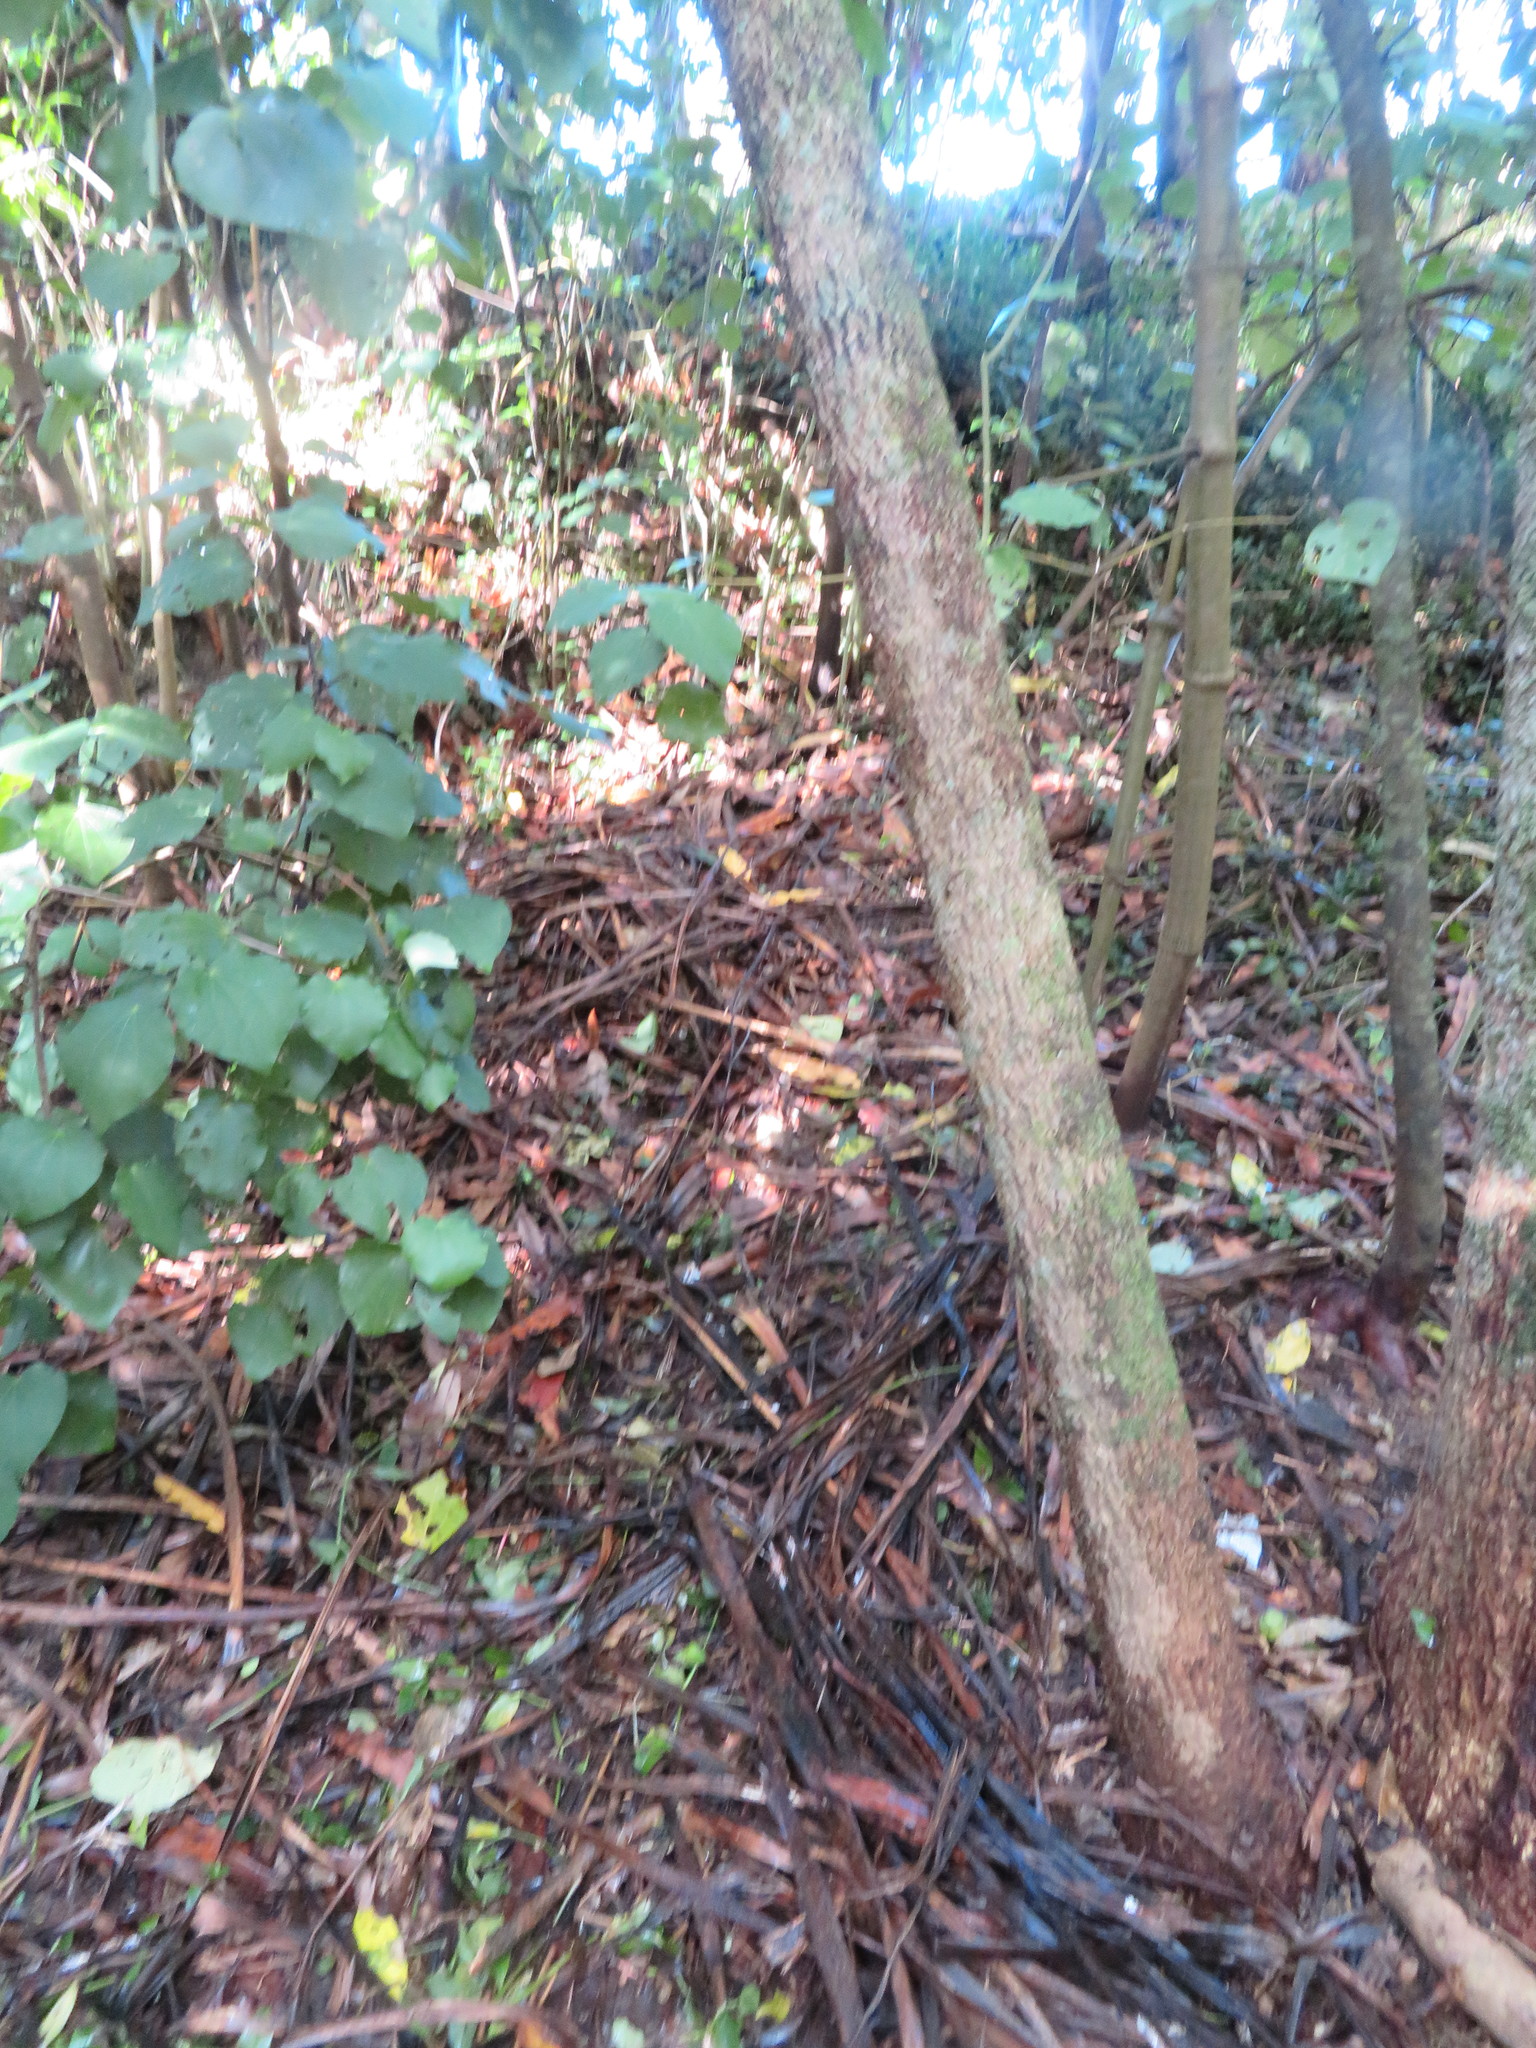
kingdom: Plantae
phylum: Tracheophyta
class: Magnoliopsida
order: Piperales
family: Piperaceae
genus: Macropiper
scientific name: Macropiper excelsum
